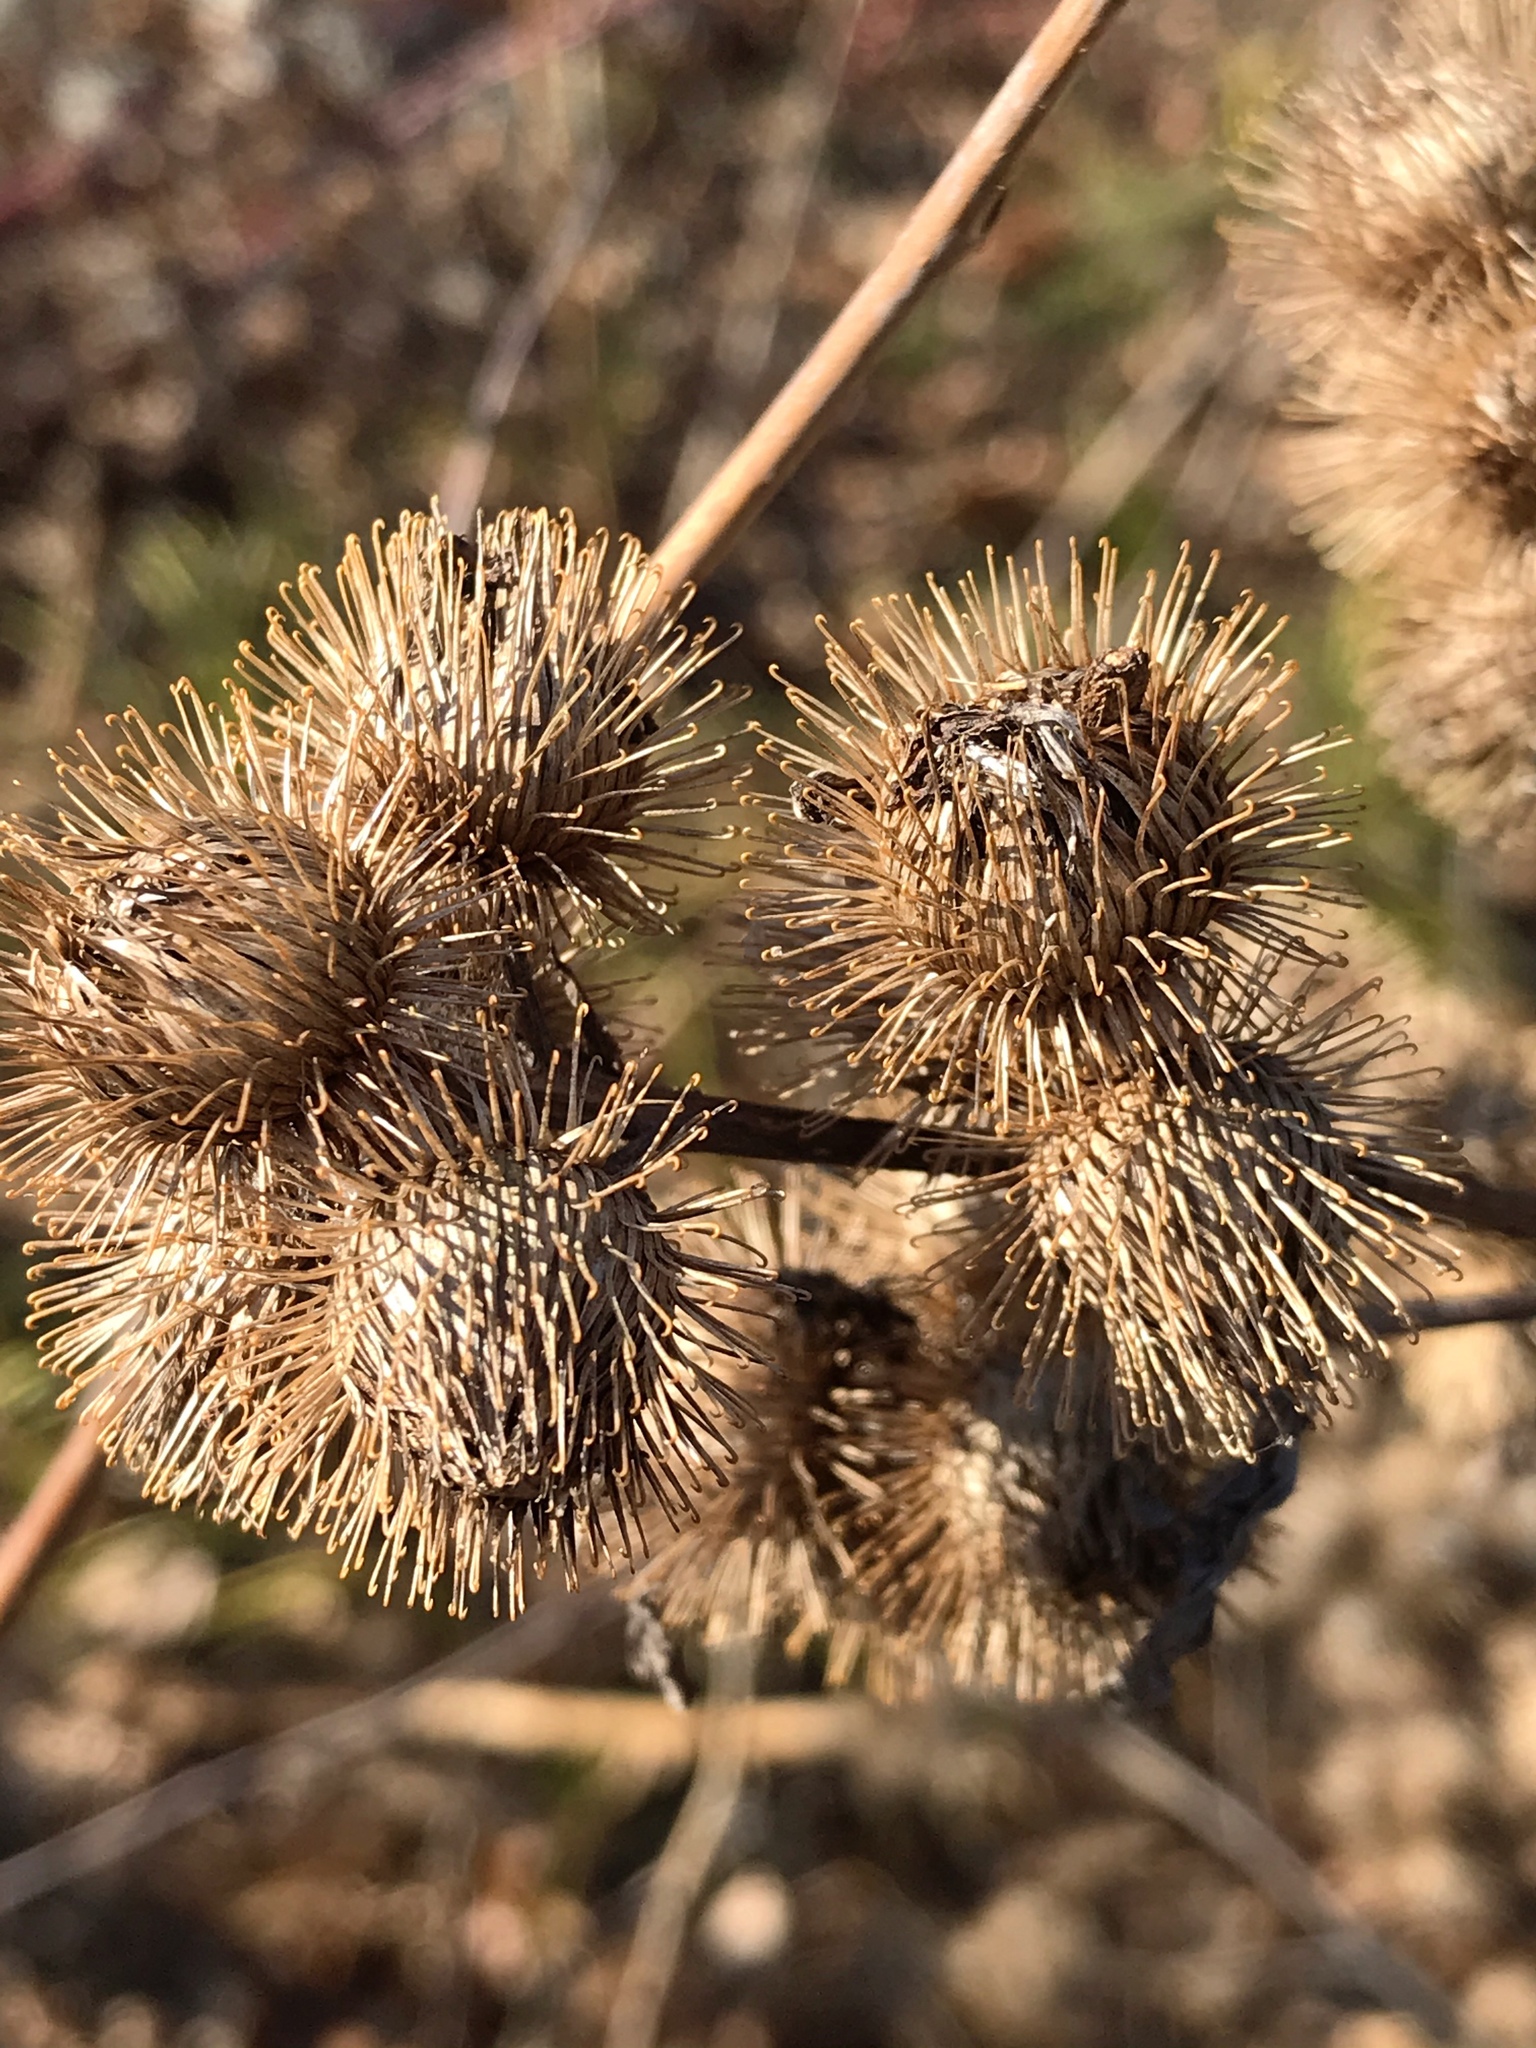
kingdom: Plantae
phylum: Tracheophyta
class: Magnoliopsida
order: Asterales
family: Asteraceae
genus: Arctium
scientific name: Arctium minus
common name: Lesser burdock
